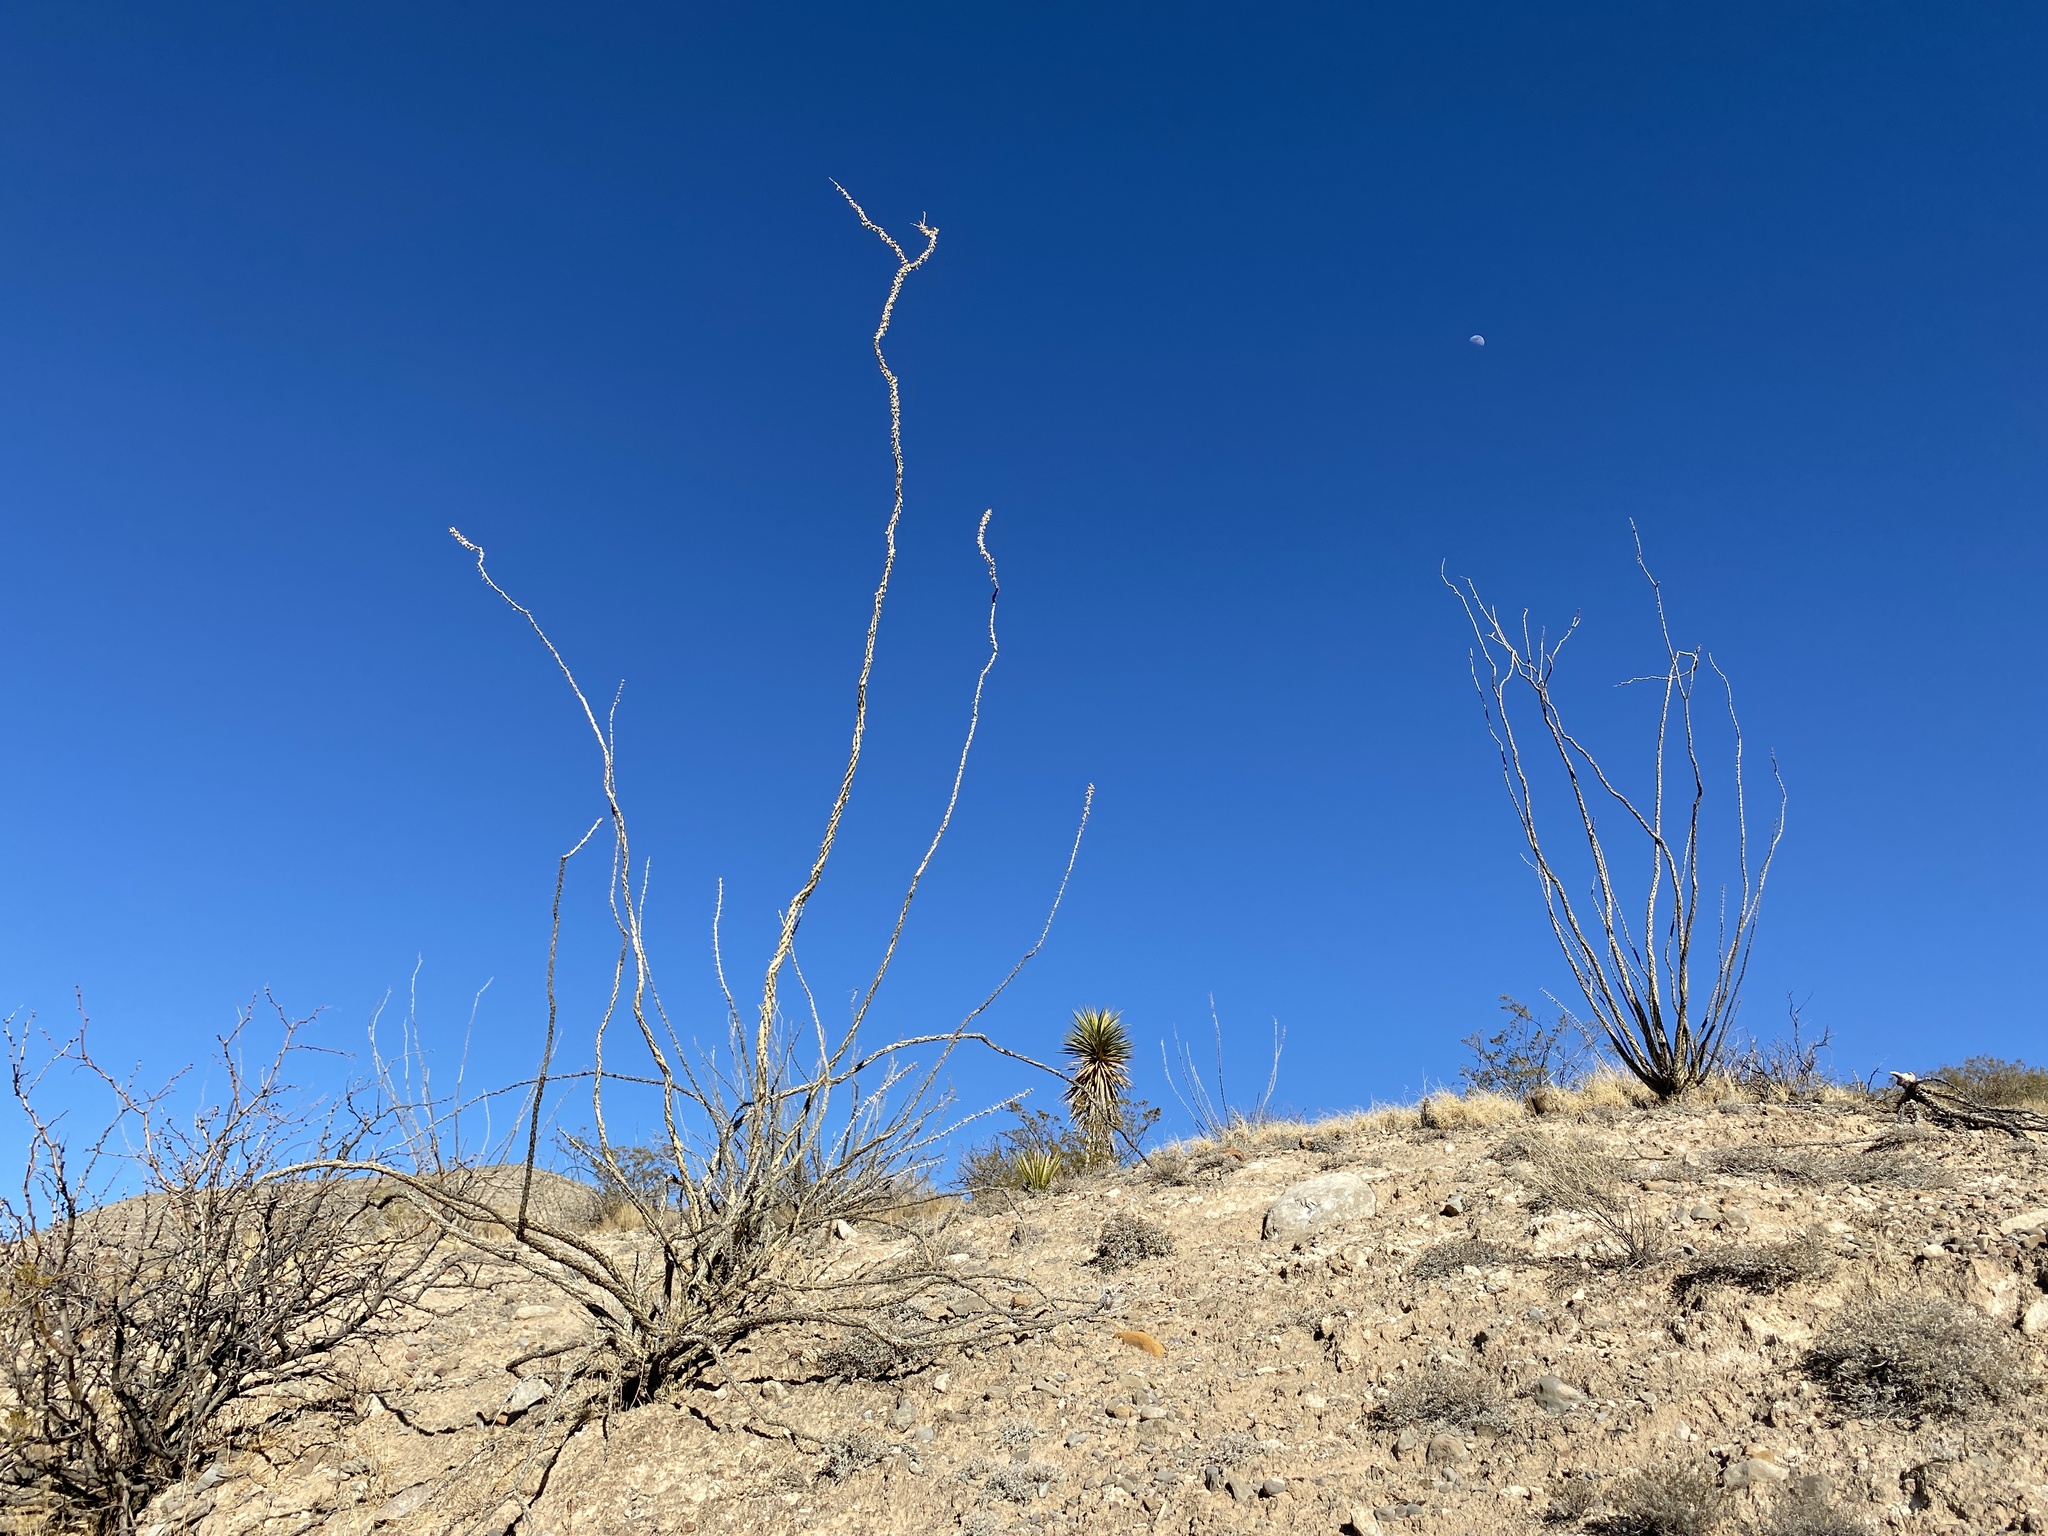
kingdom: Plantae
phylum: Tracheophyta
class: Magnoliopsida
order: Ericales
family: Fouquieriaceae
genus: Fouquieria
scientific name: Fouquieria splendens
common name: Vine-cactus
